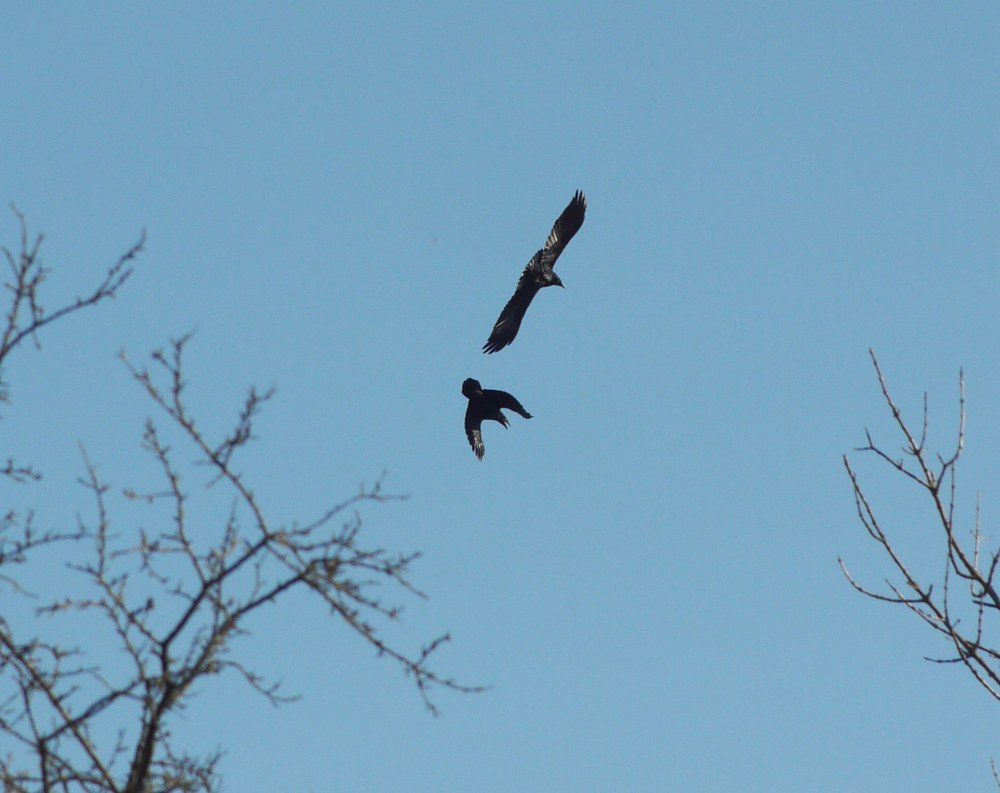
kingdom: Animalia
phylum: Chordata
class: Aves
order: Passeriformes
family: Corvidae
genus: Corvus
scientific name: Corvus corax
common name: Common raven
